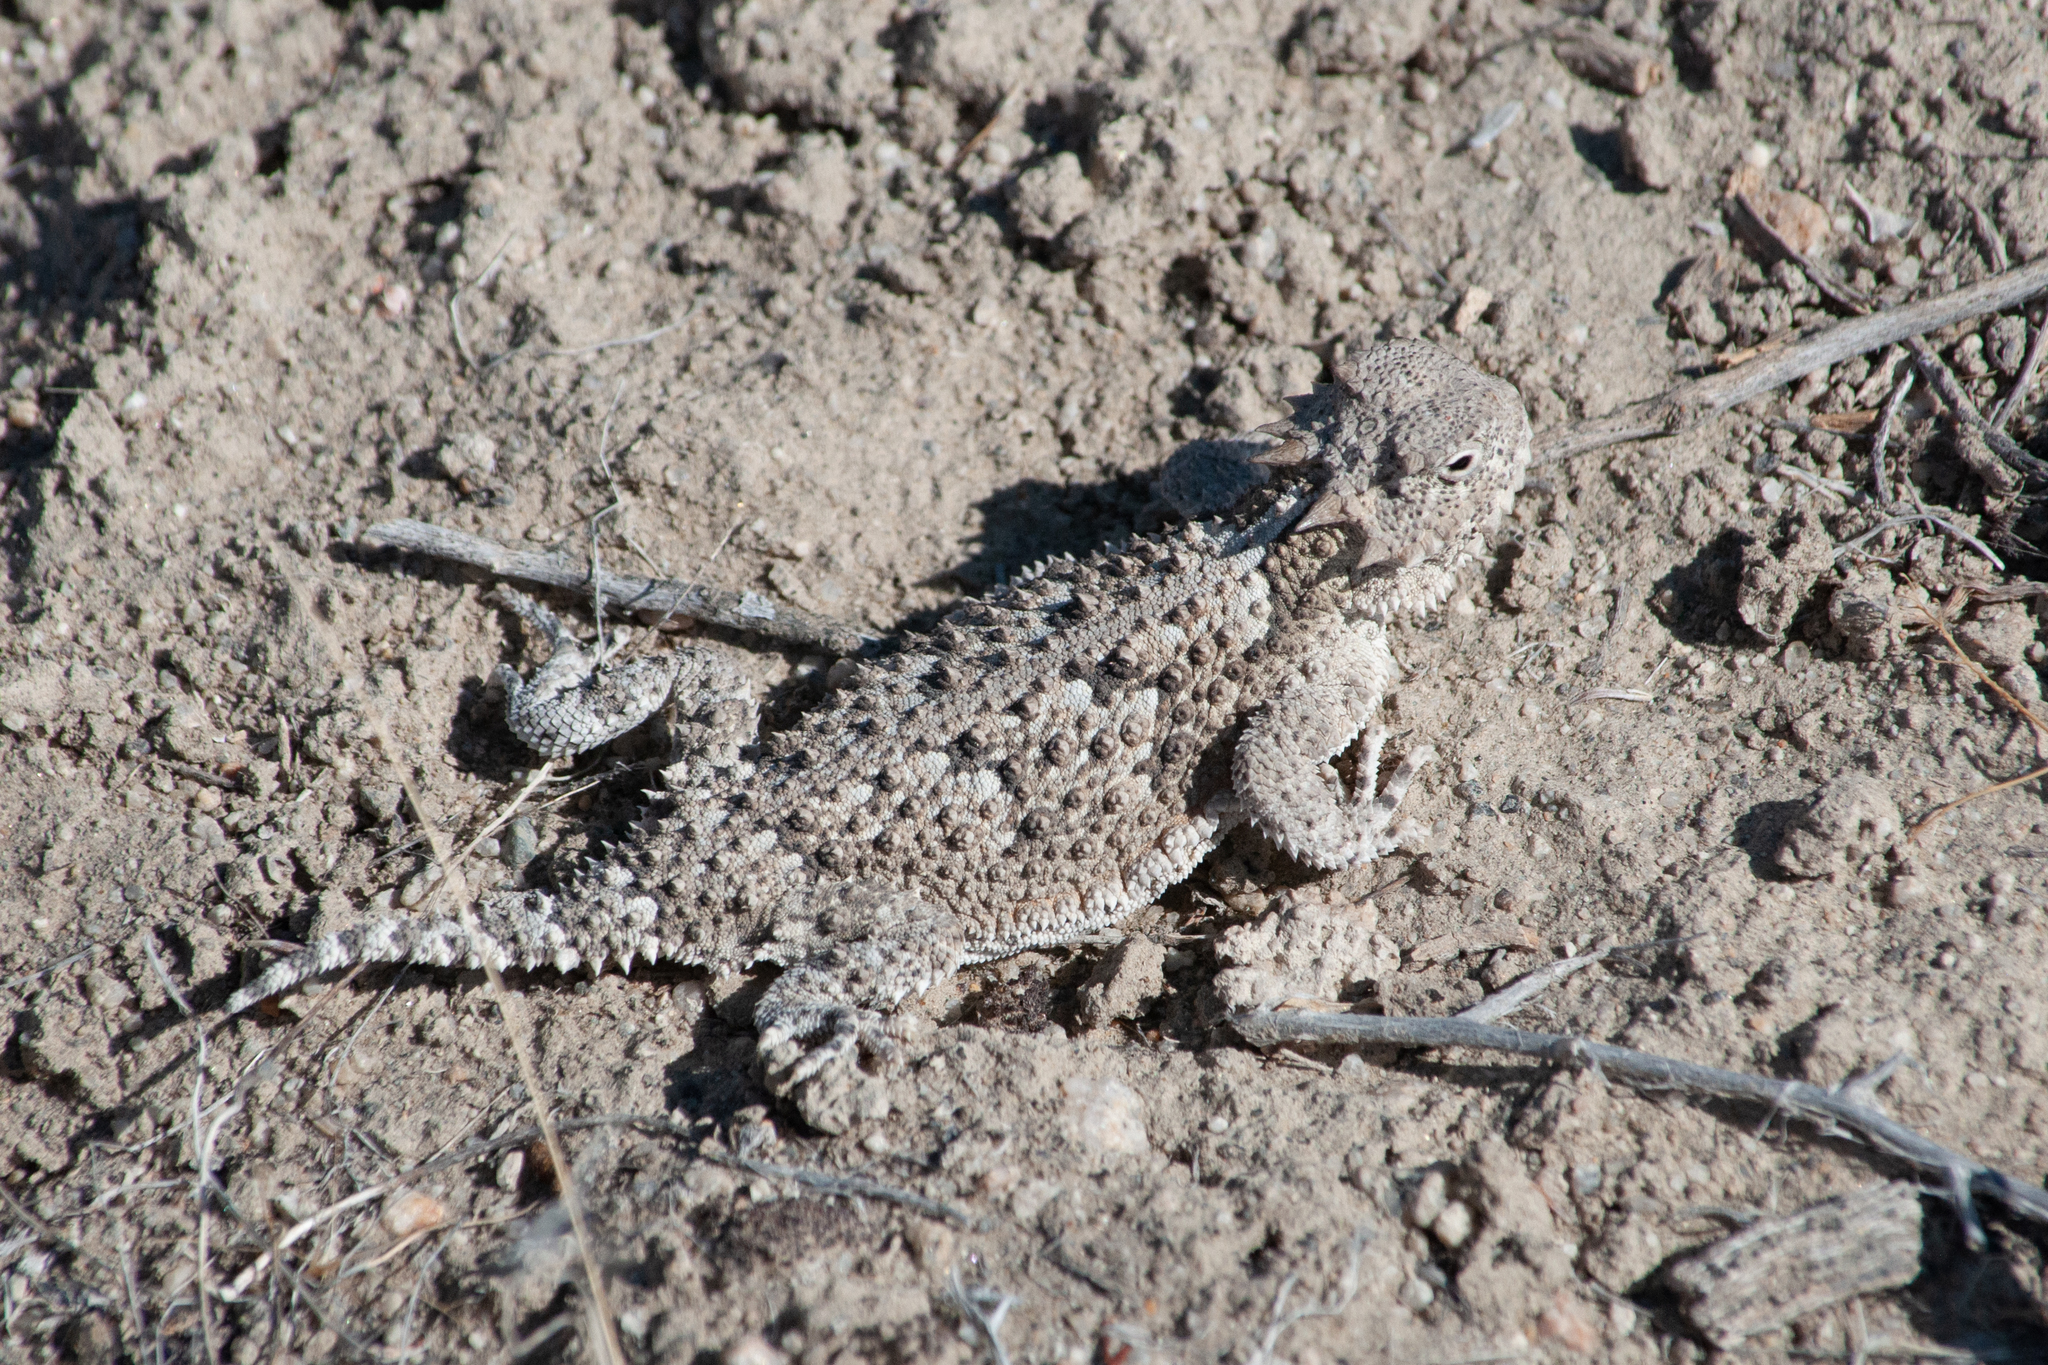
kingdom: Animalia
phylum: Chordata
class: Squamata
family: Phrynosomatidae
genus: Phrynosoma
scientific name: Phrynosoma platyrhinos
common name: Desert horned lizard
